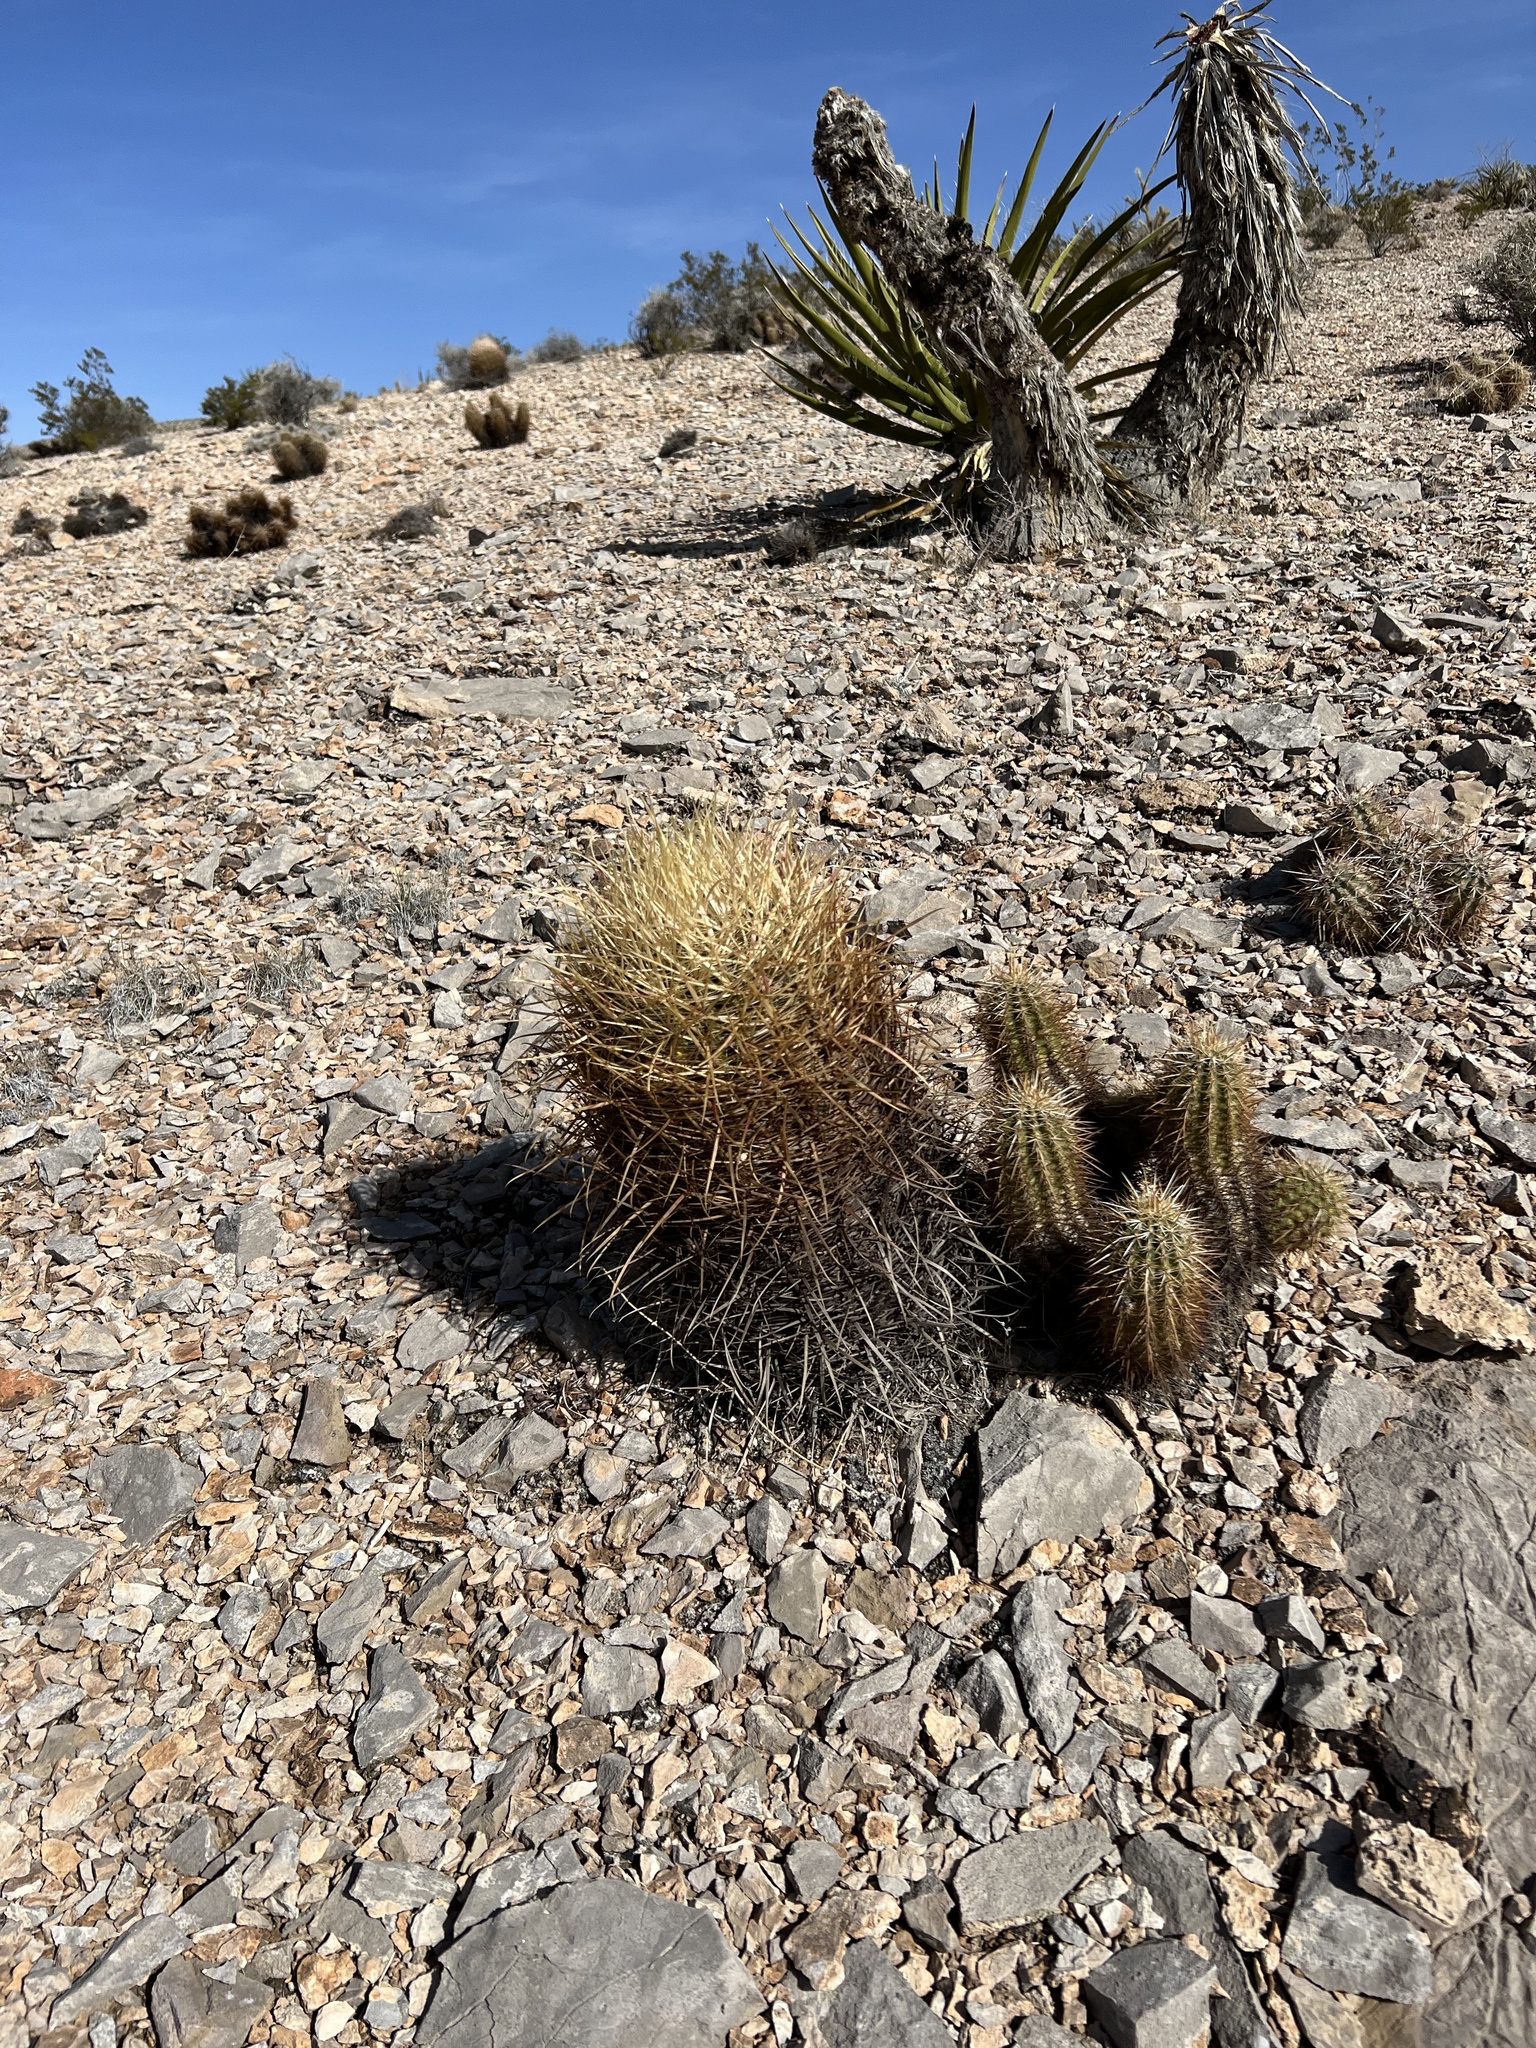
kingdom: Plantae
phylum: Tracheophyta
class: Magnoliopsida
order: Caryophyllales
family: Cactaceae
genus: Ferocactus
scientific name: Ferocactus cylindraceus
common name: California barrel cactus
